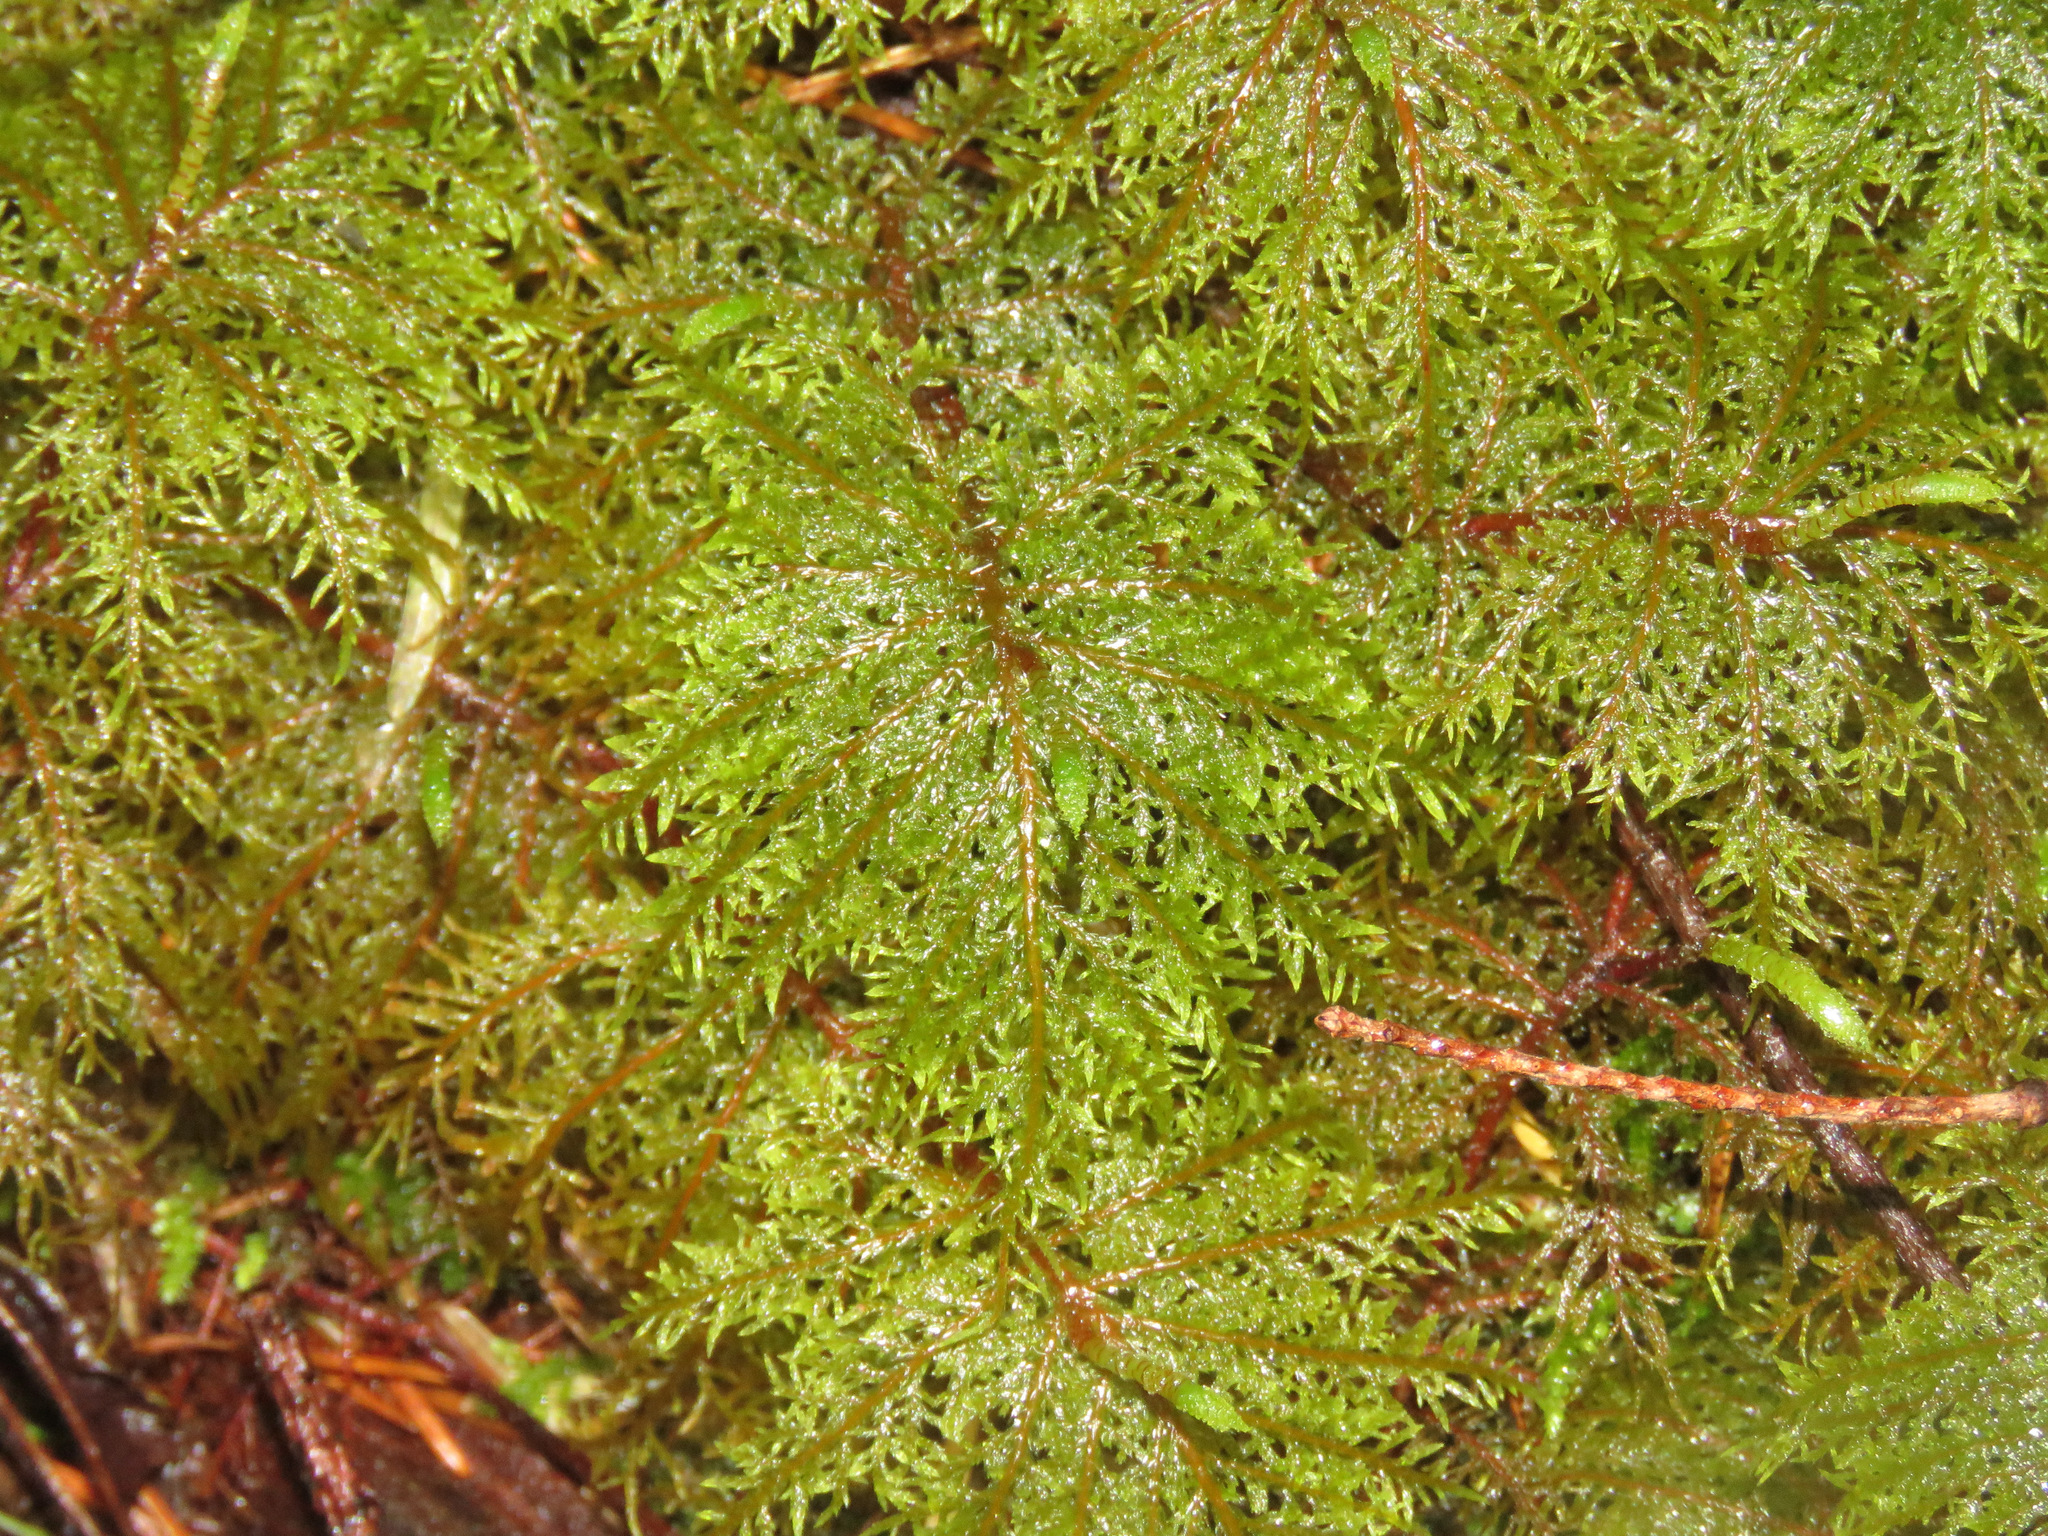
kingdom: Plantae
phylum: Bryophyta
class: Bryopsida
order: Hypnales
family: Hylocomiaceae
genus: Hylocomium
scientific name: Hylocomium splendens
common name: Stairstep moss
